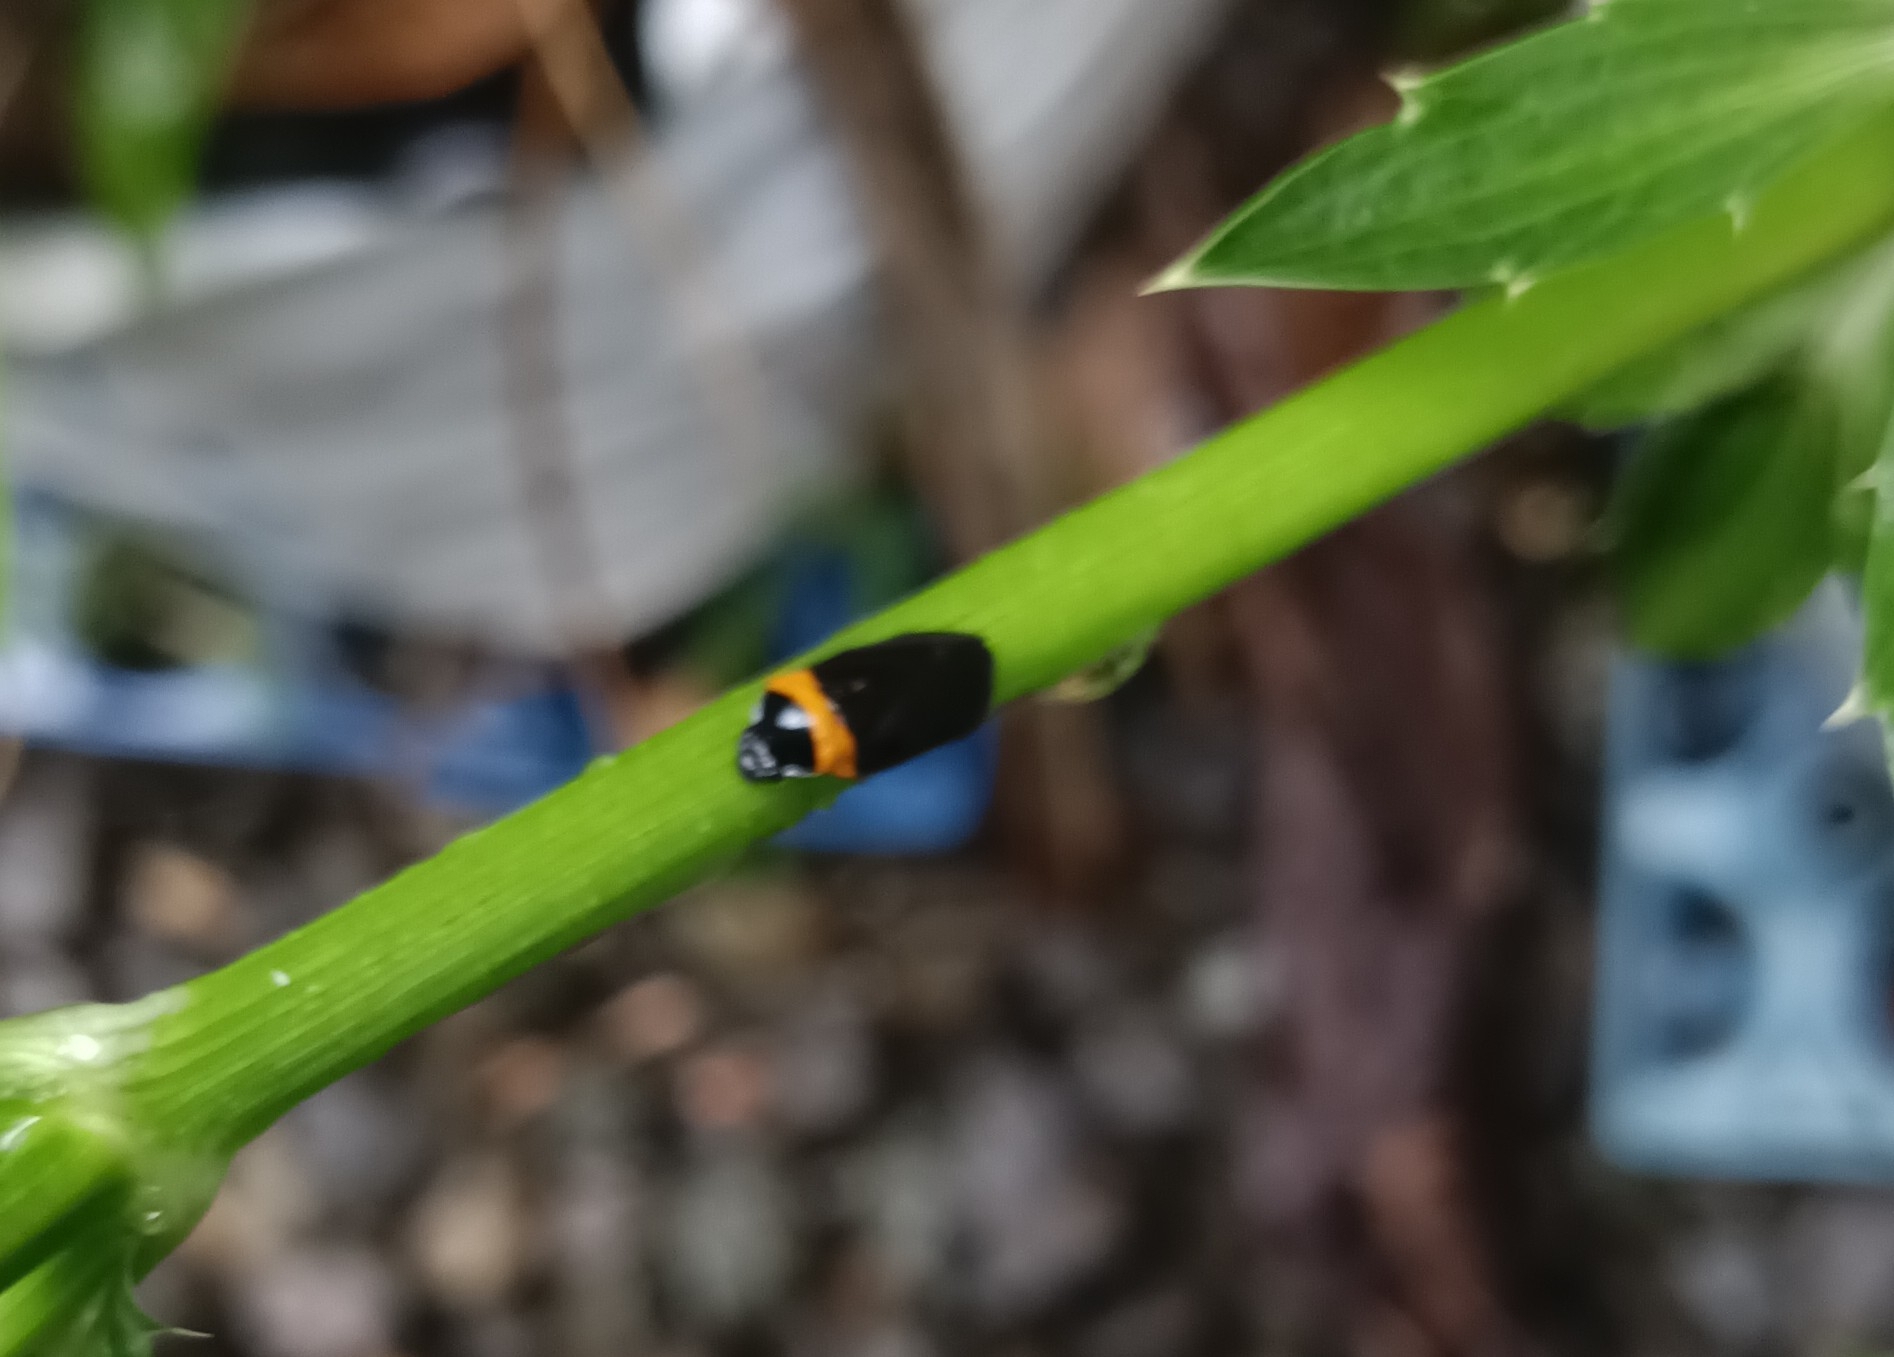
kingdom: Animalia
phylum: Arthropoda
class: Insecta
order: Hemiptera
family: Cercopidae
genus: Phymatostetha
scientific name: Phymatostetha deschampsi
